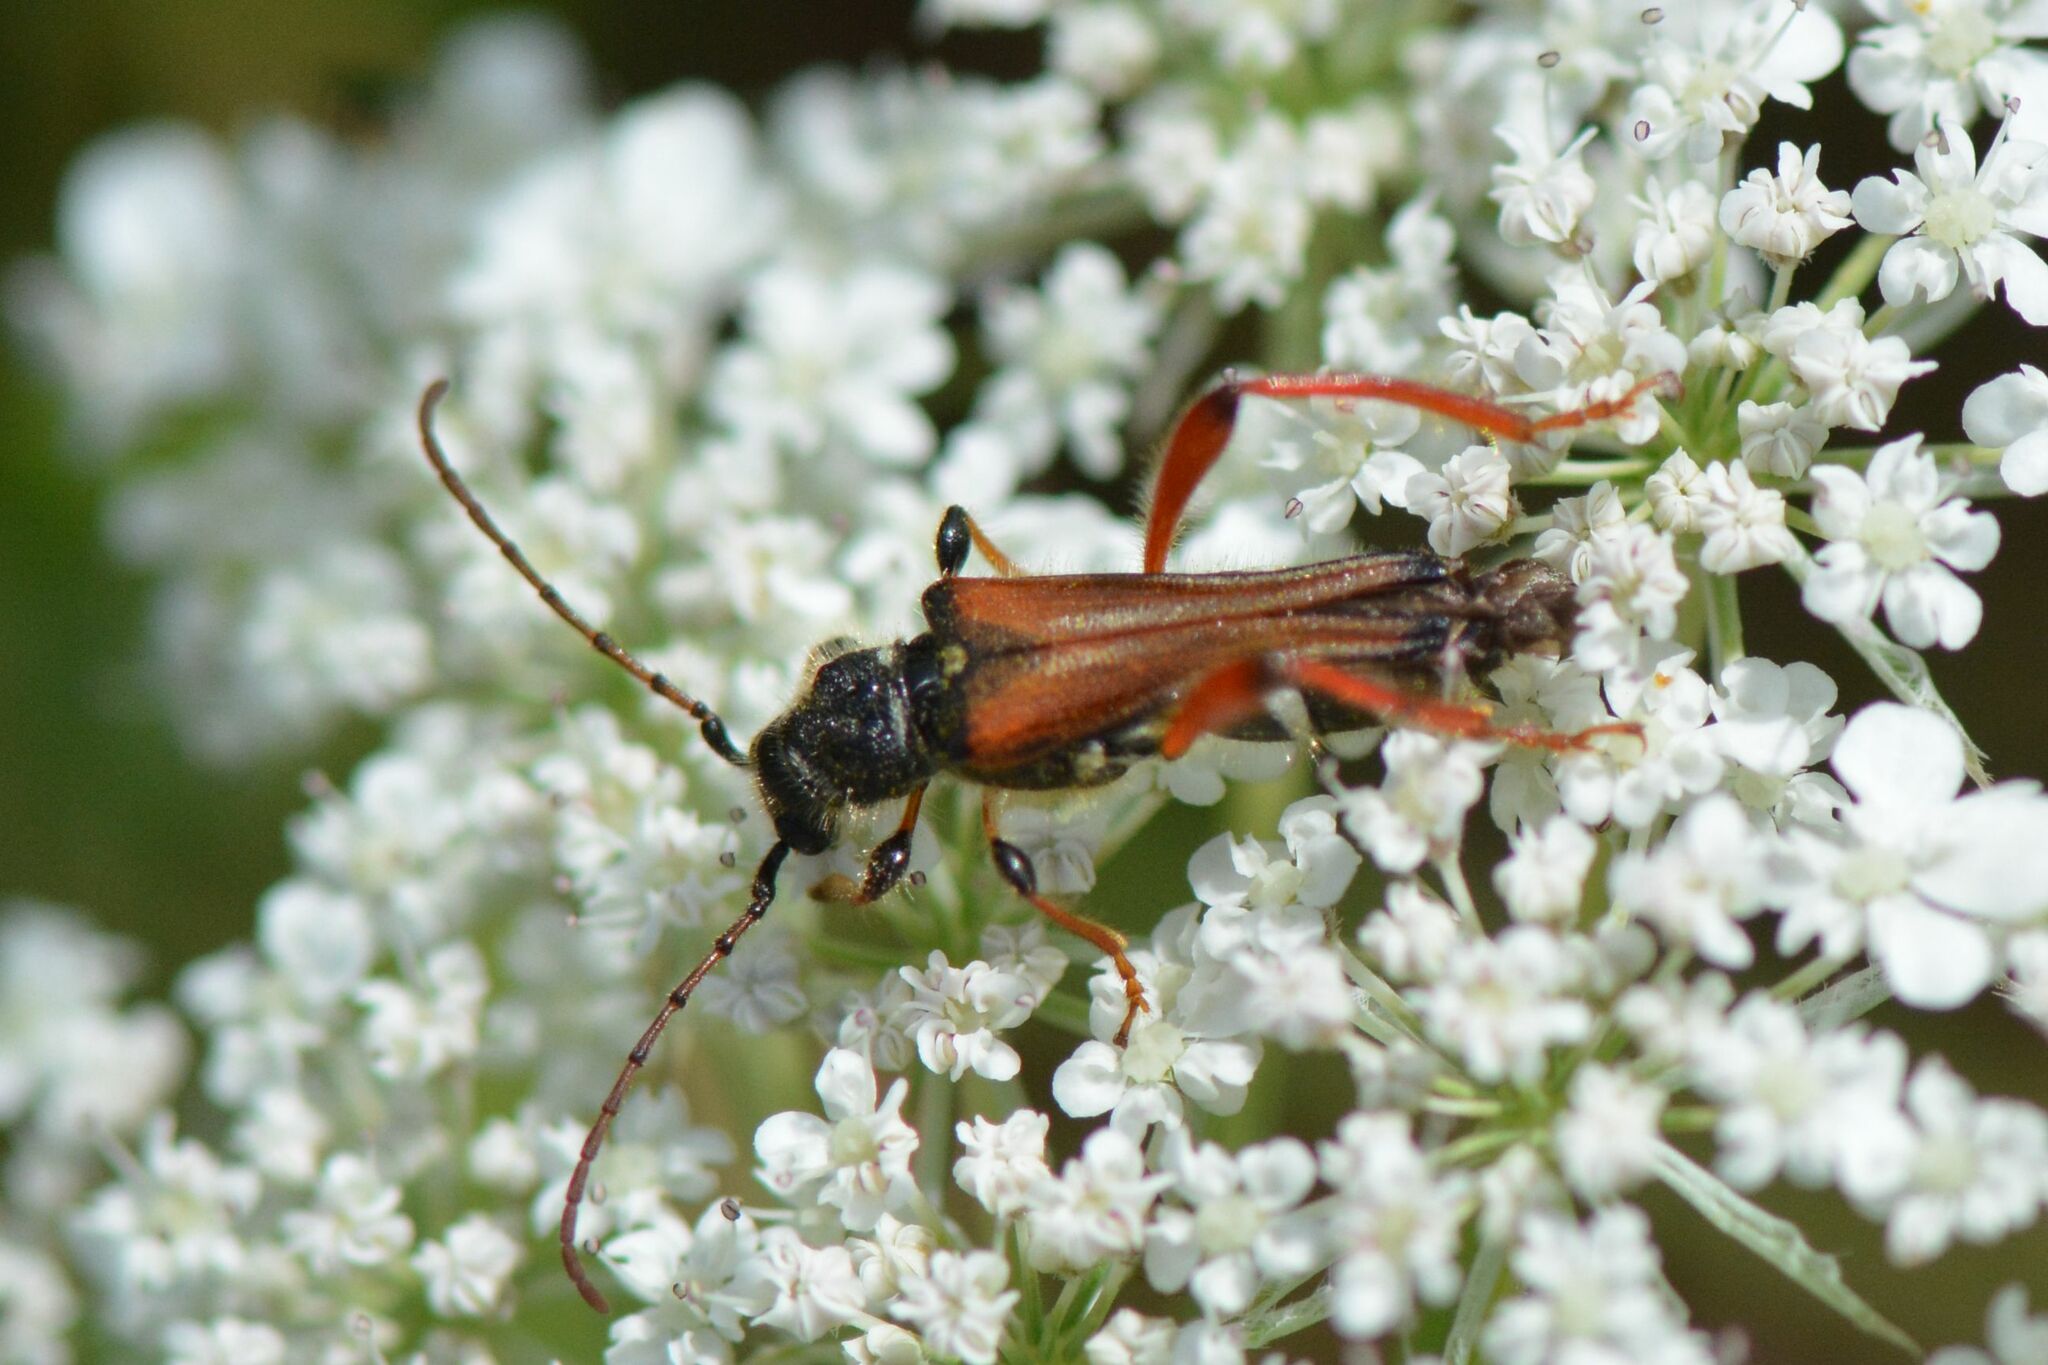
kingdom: Animalia
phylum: Arthropoda
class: Insecta
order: Coleoptera
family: Cerambycidae
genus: Stenopterus
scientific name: Stenopterus rufus
